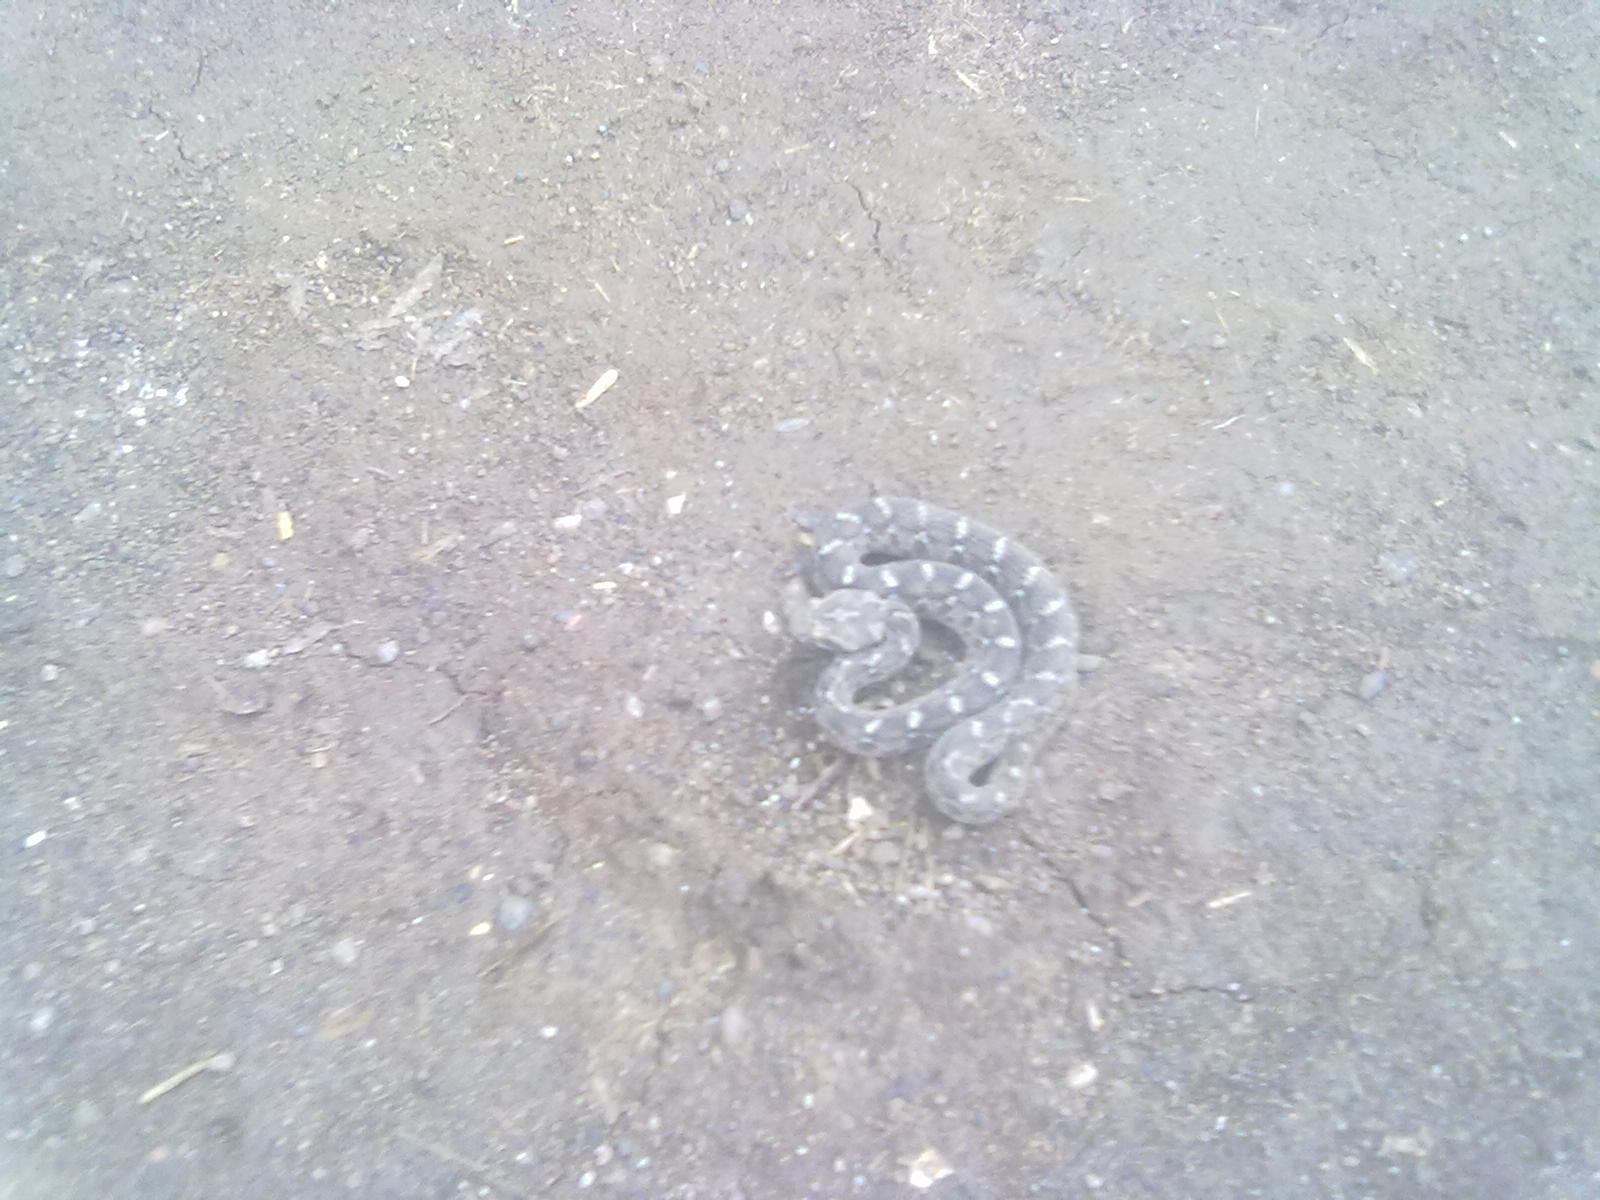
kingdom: Animalia
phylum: Chordata
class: Squamata
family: Viperidae
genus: Echis
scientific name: Echis carinatus
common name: Saw-scaled viper
